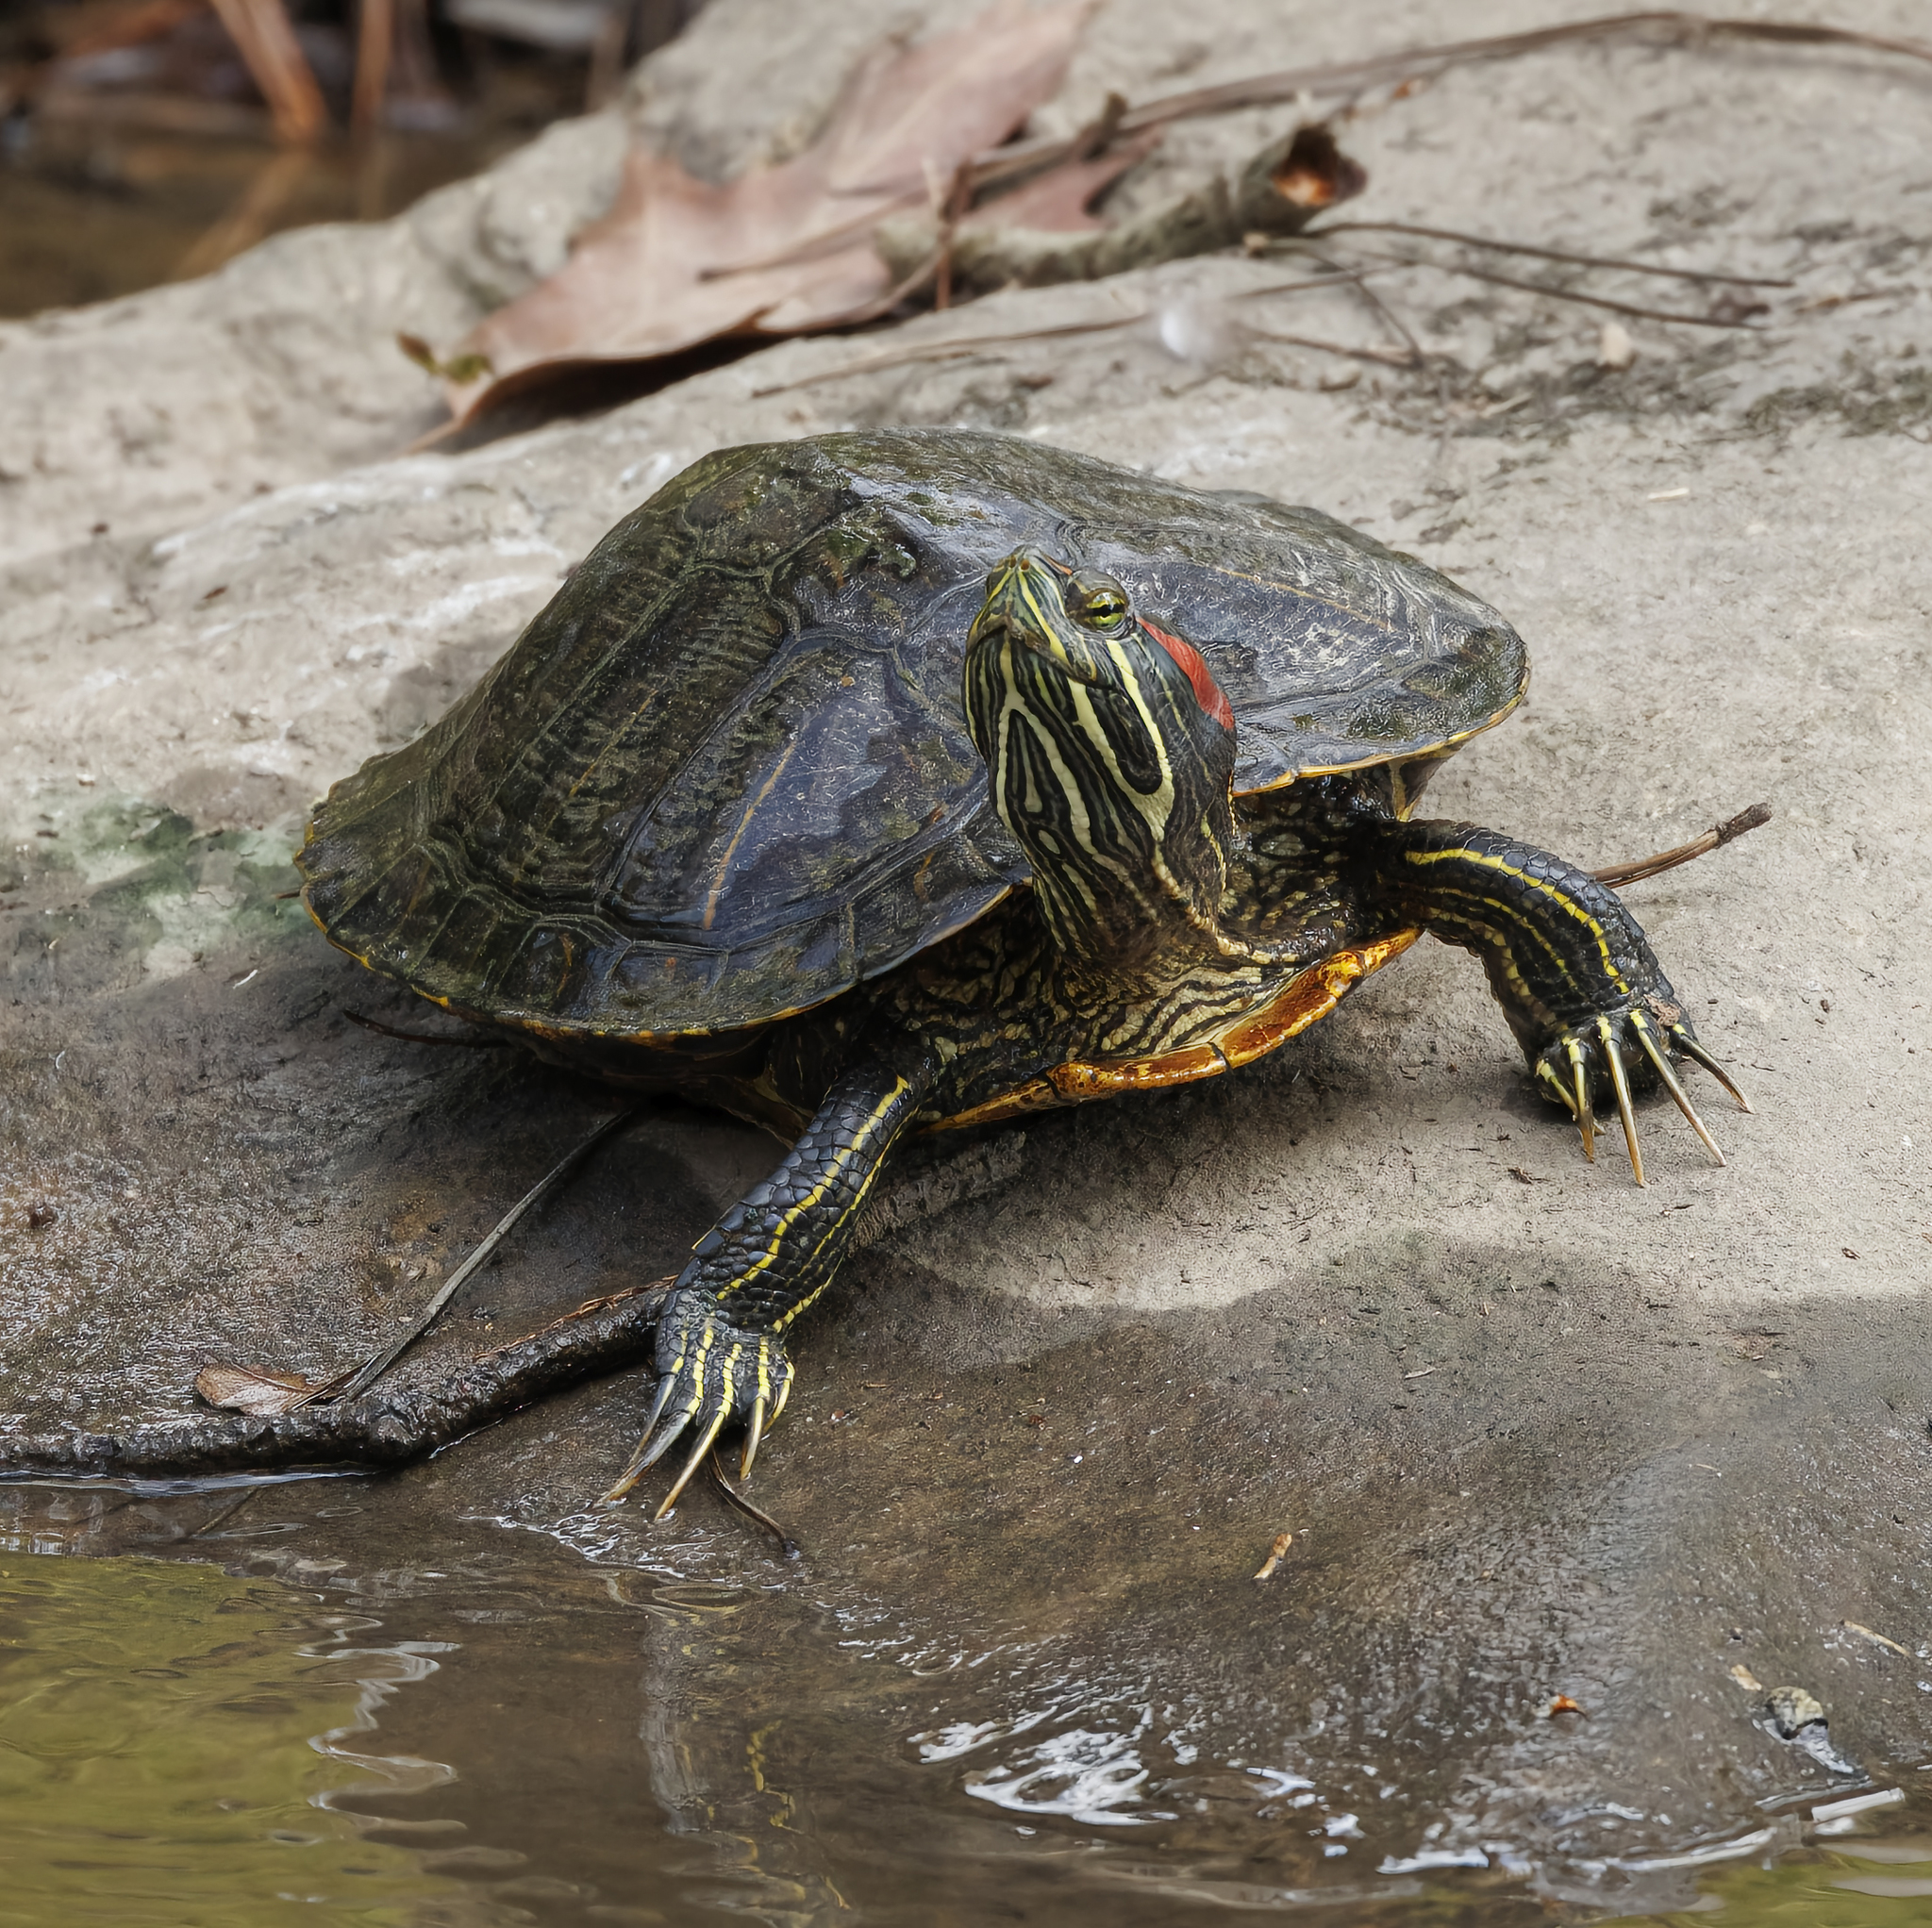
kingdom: Animalia
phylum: Chordata
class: Testudines
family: Emydidae
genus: Trachemys
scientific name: Trachemys scripta
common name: Slider
